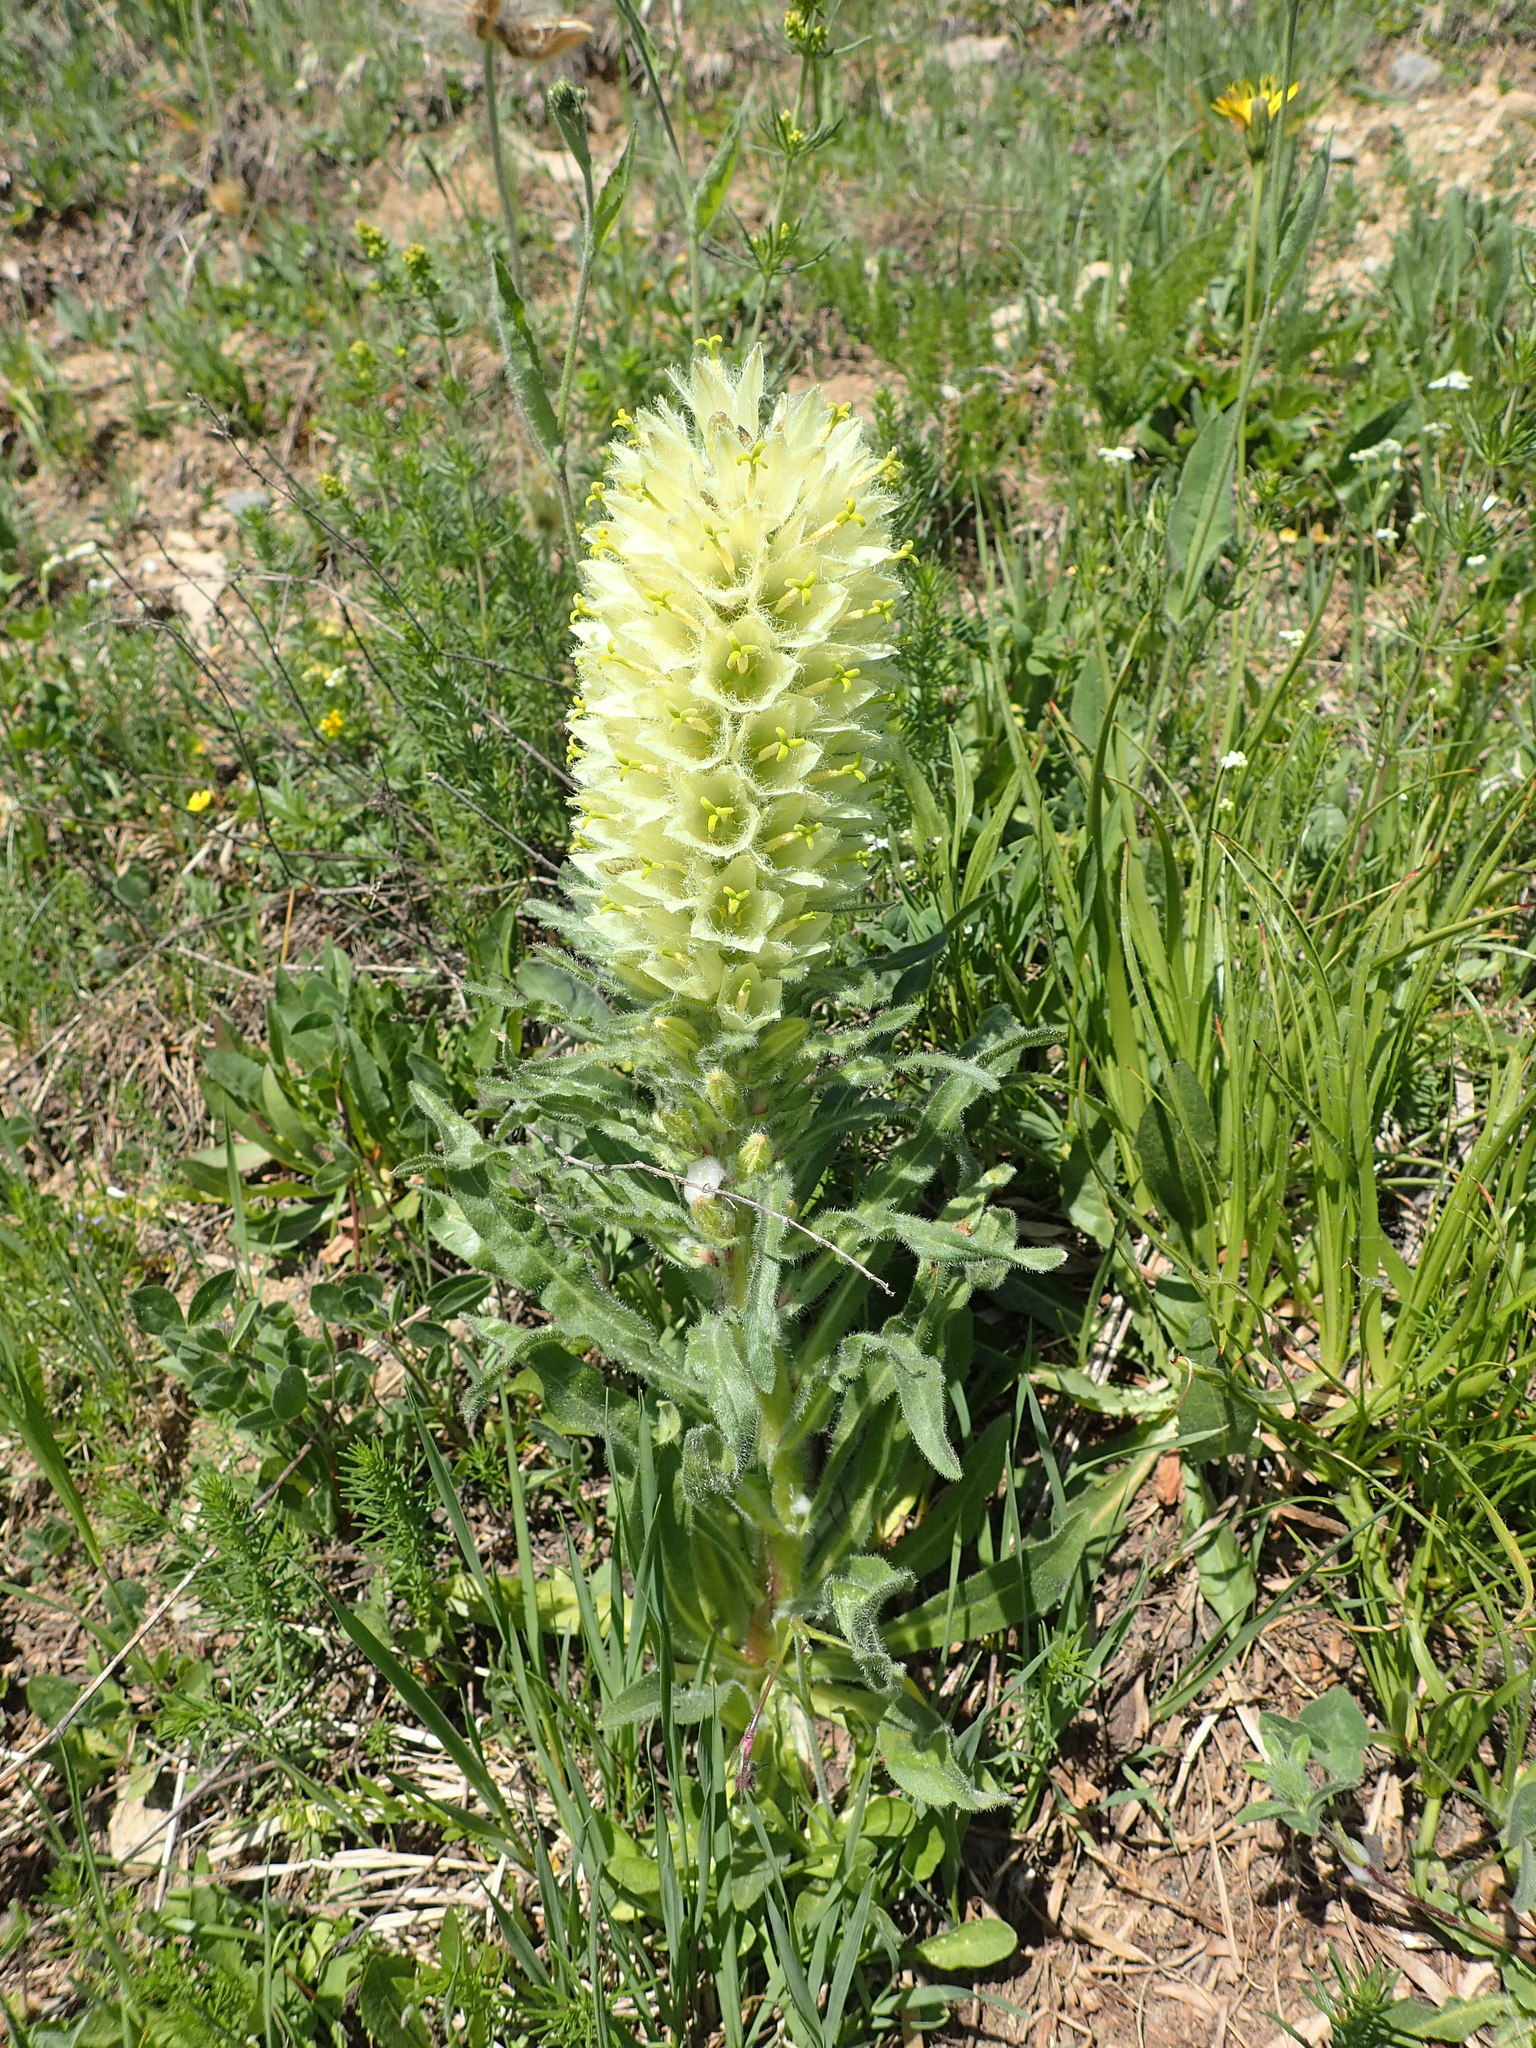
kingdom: Plantae
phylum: Tracheophyta
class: Magnoliopsida
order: Asterales
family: Campanulaceae
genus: Campanula
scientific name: Campanula thyrsoides
